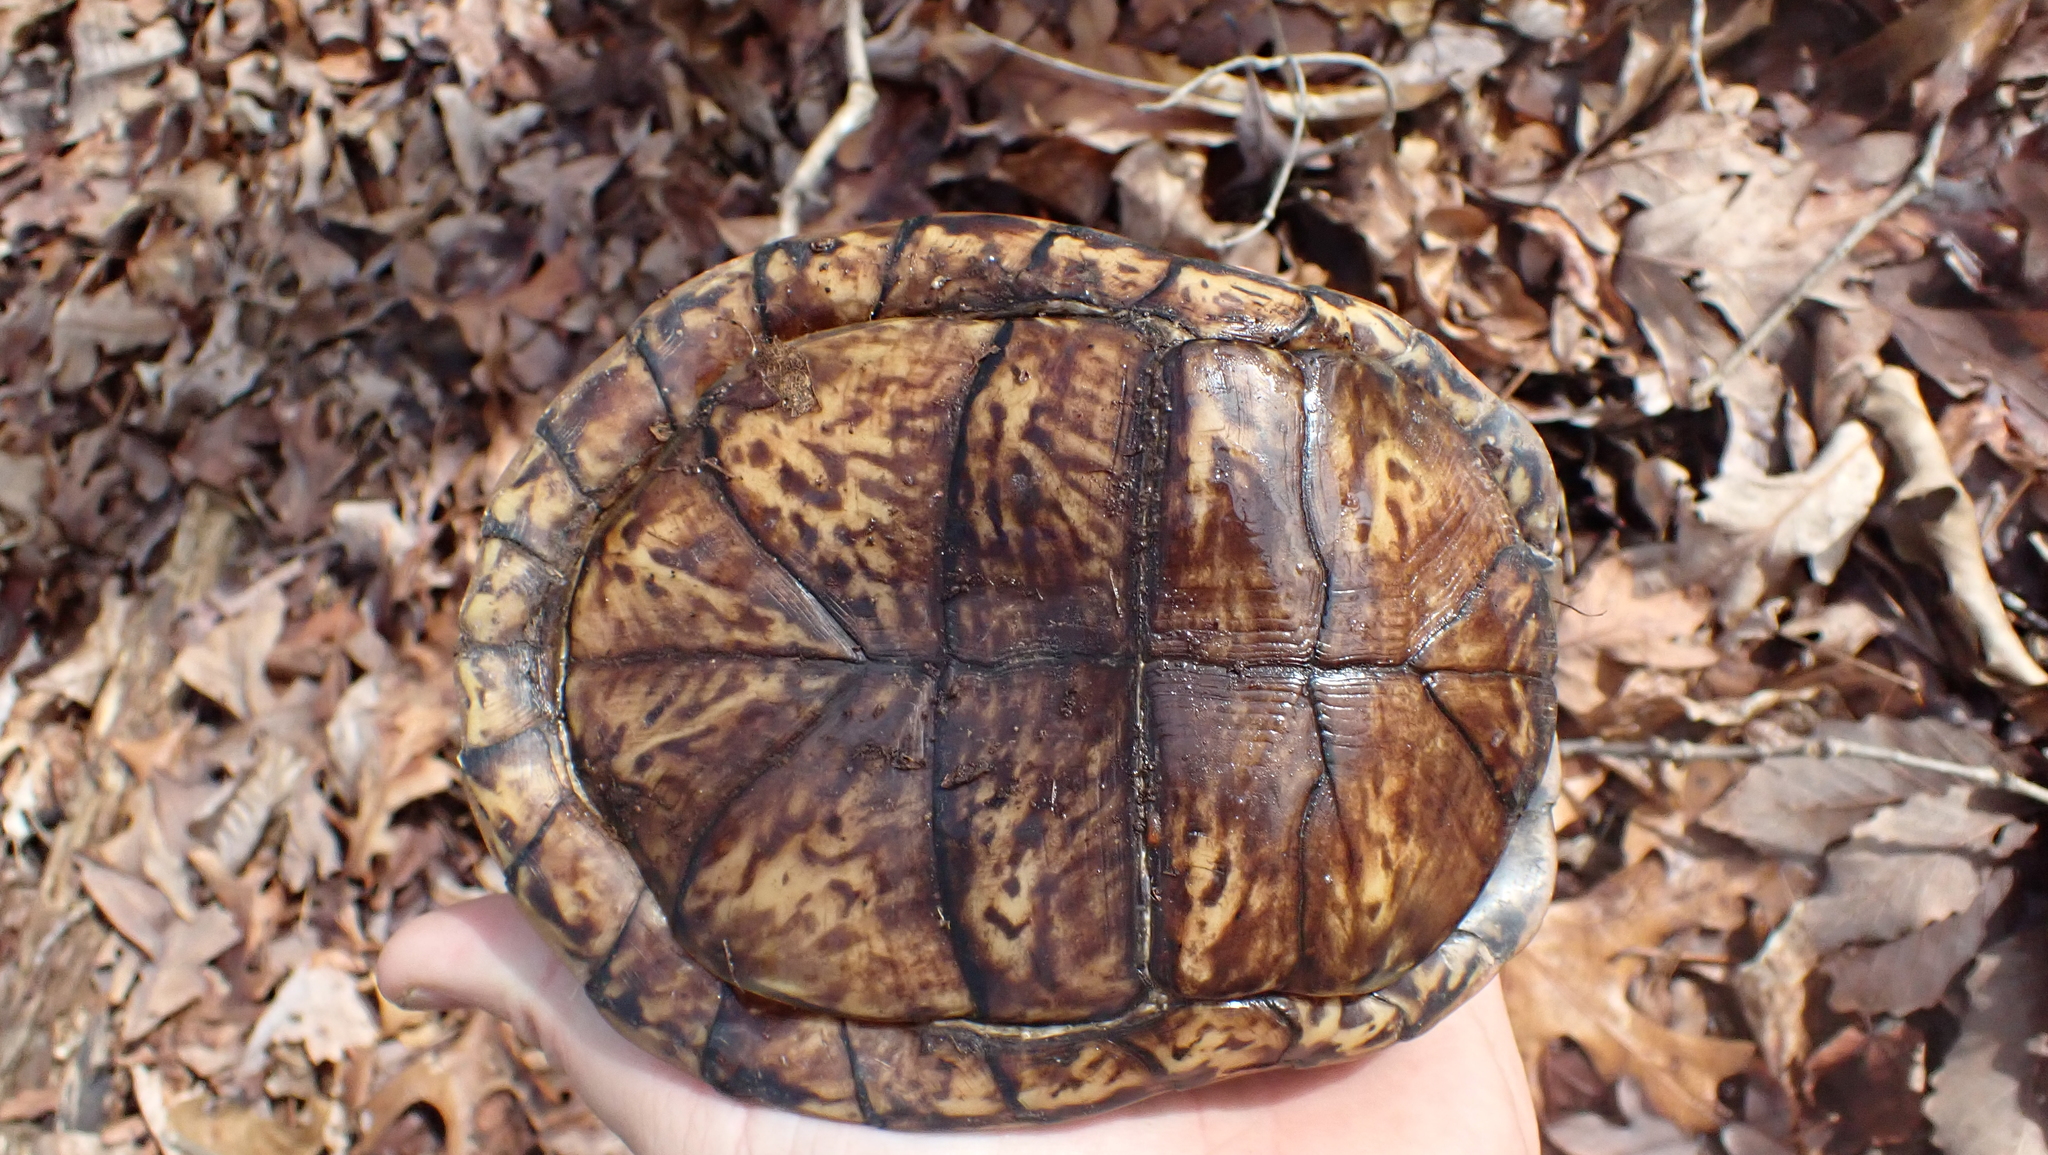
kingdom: Animalia
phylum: Chordata
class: Testudines
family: Emydidae
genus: Terrapene
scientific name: Terrapene carolina
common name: Common box turtle
